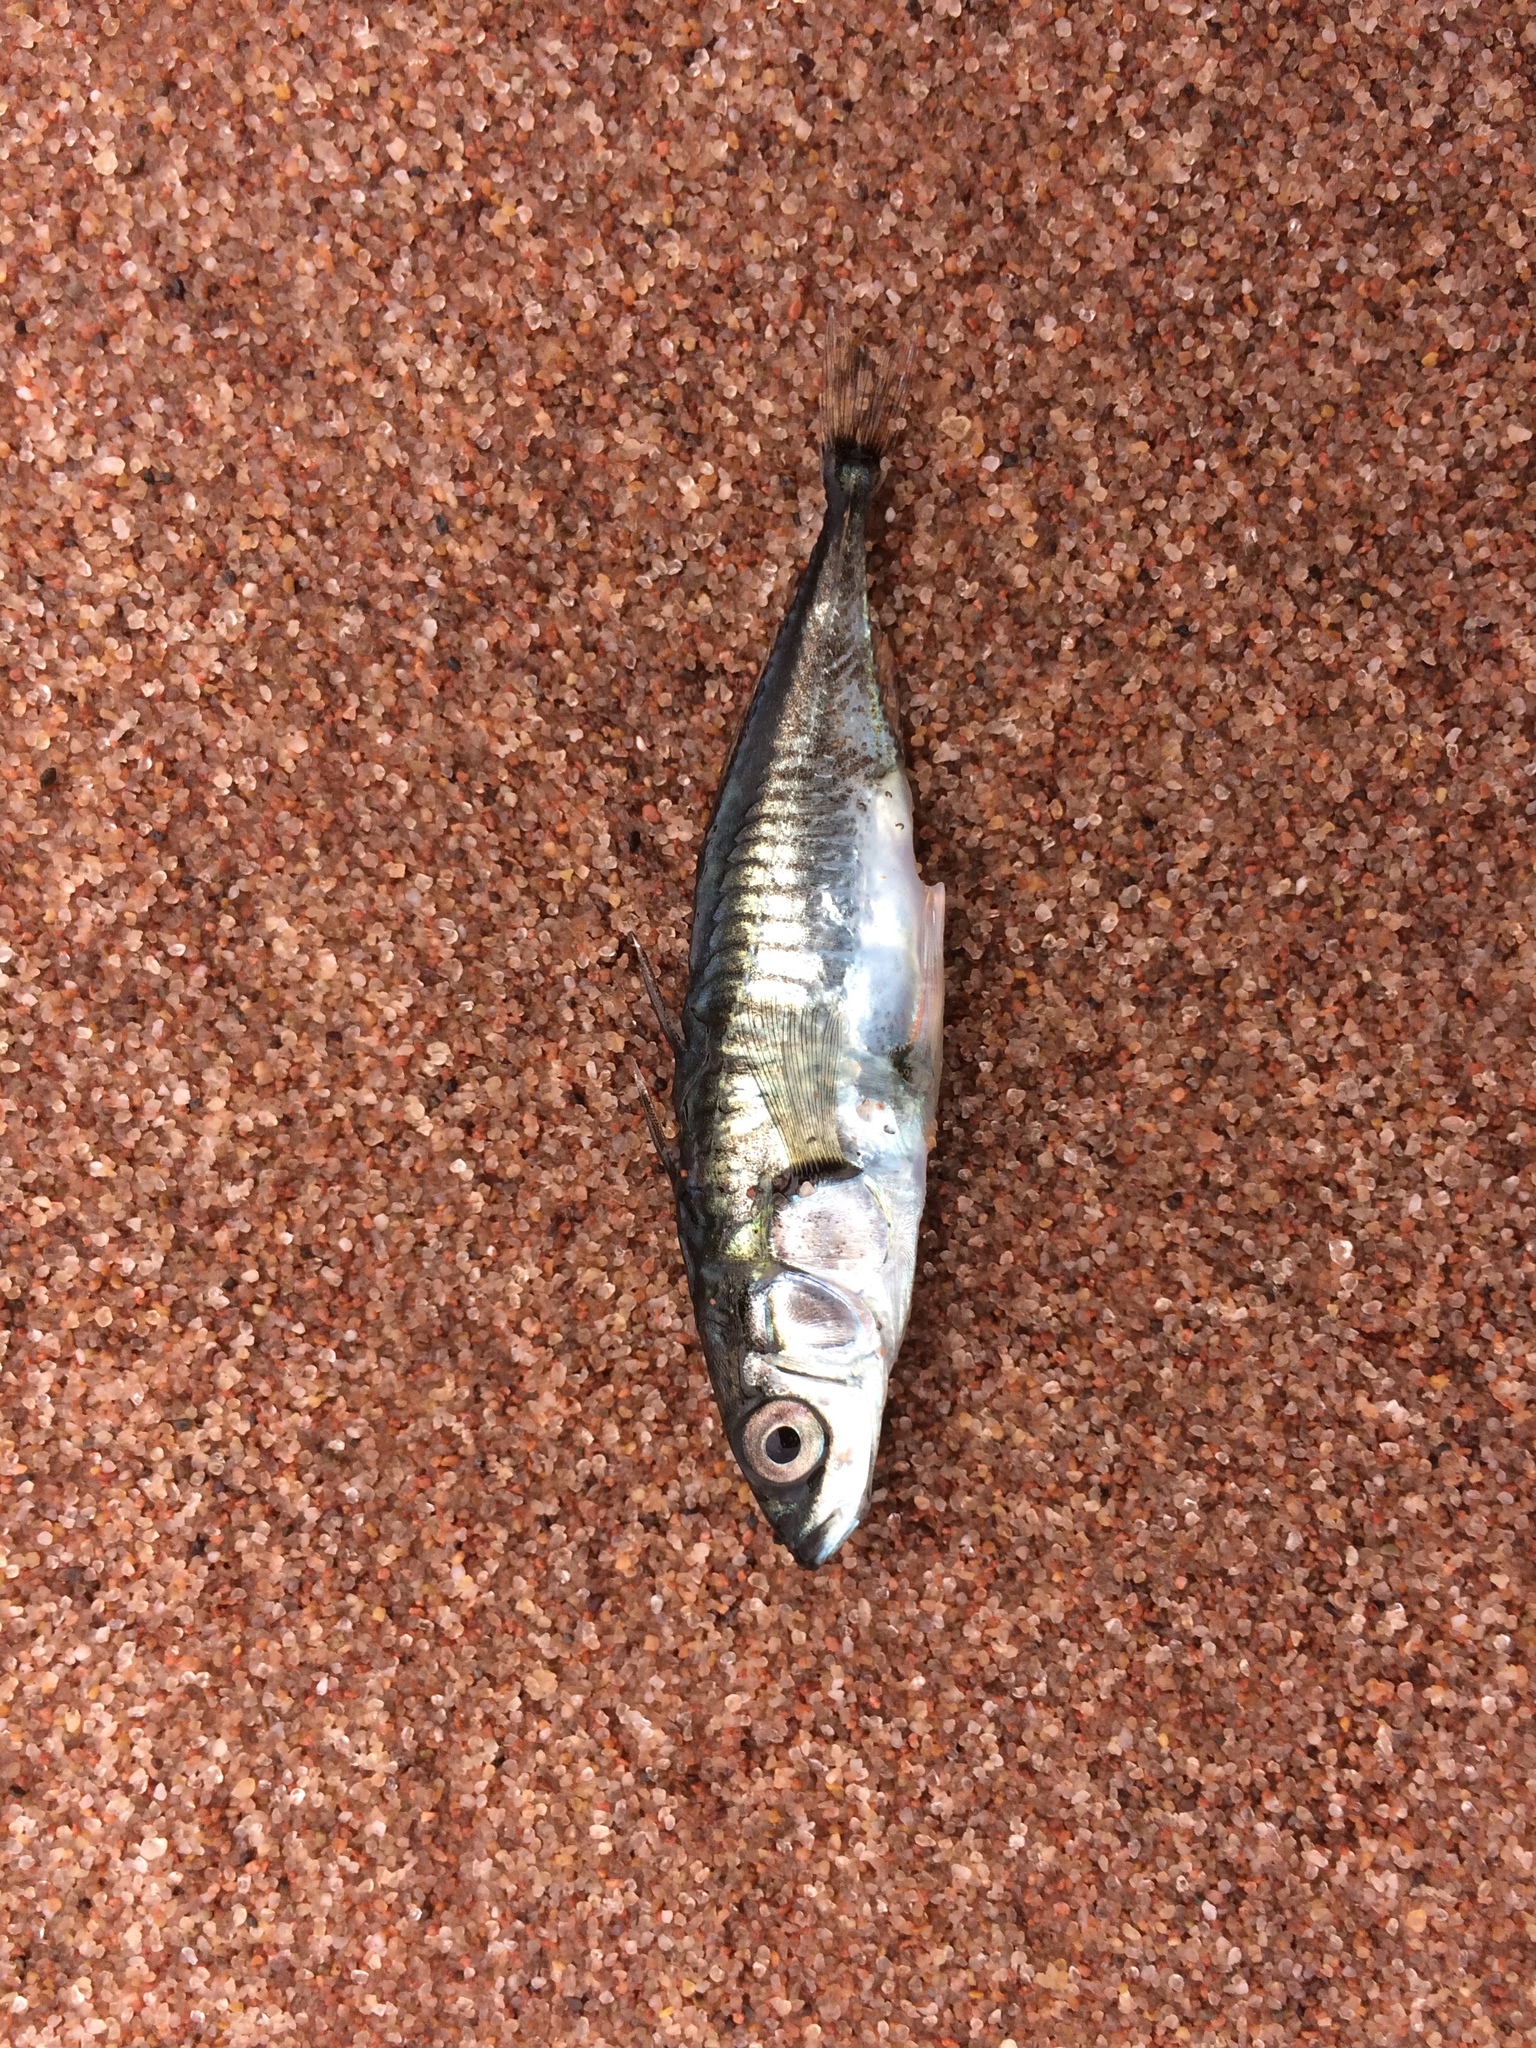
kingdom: Animalia
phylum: Chordata
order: Gasterosteiformes
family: Gasterosteidae
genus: Gasterosteus
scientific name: Gasterosteus aculeatus
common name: Three-spined stickleback
